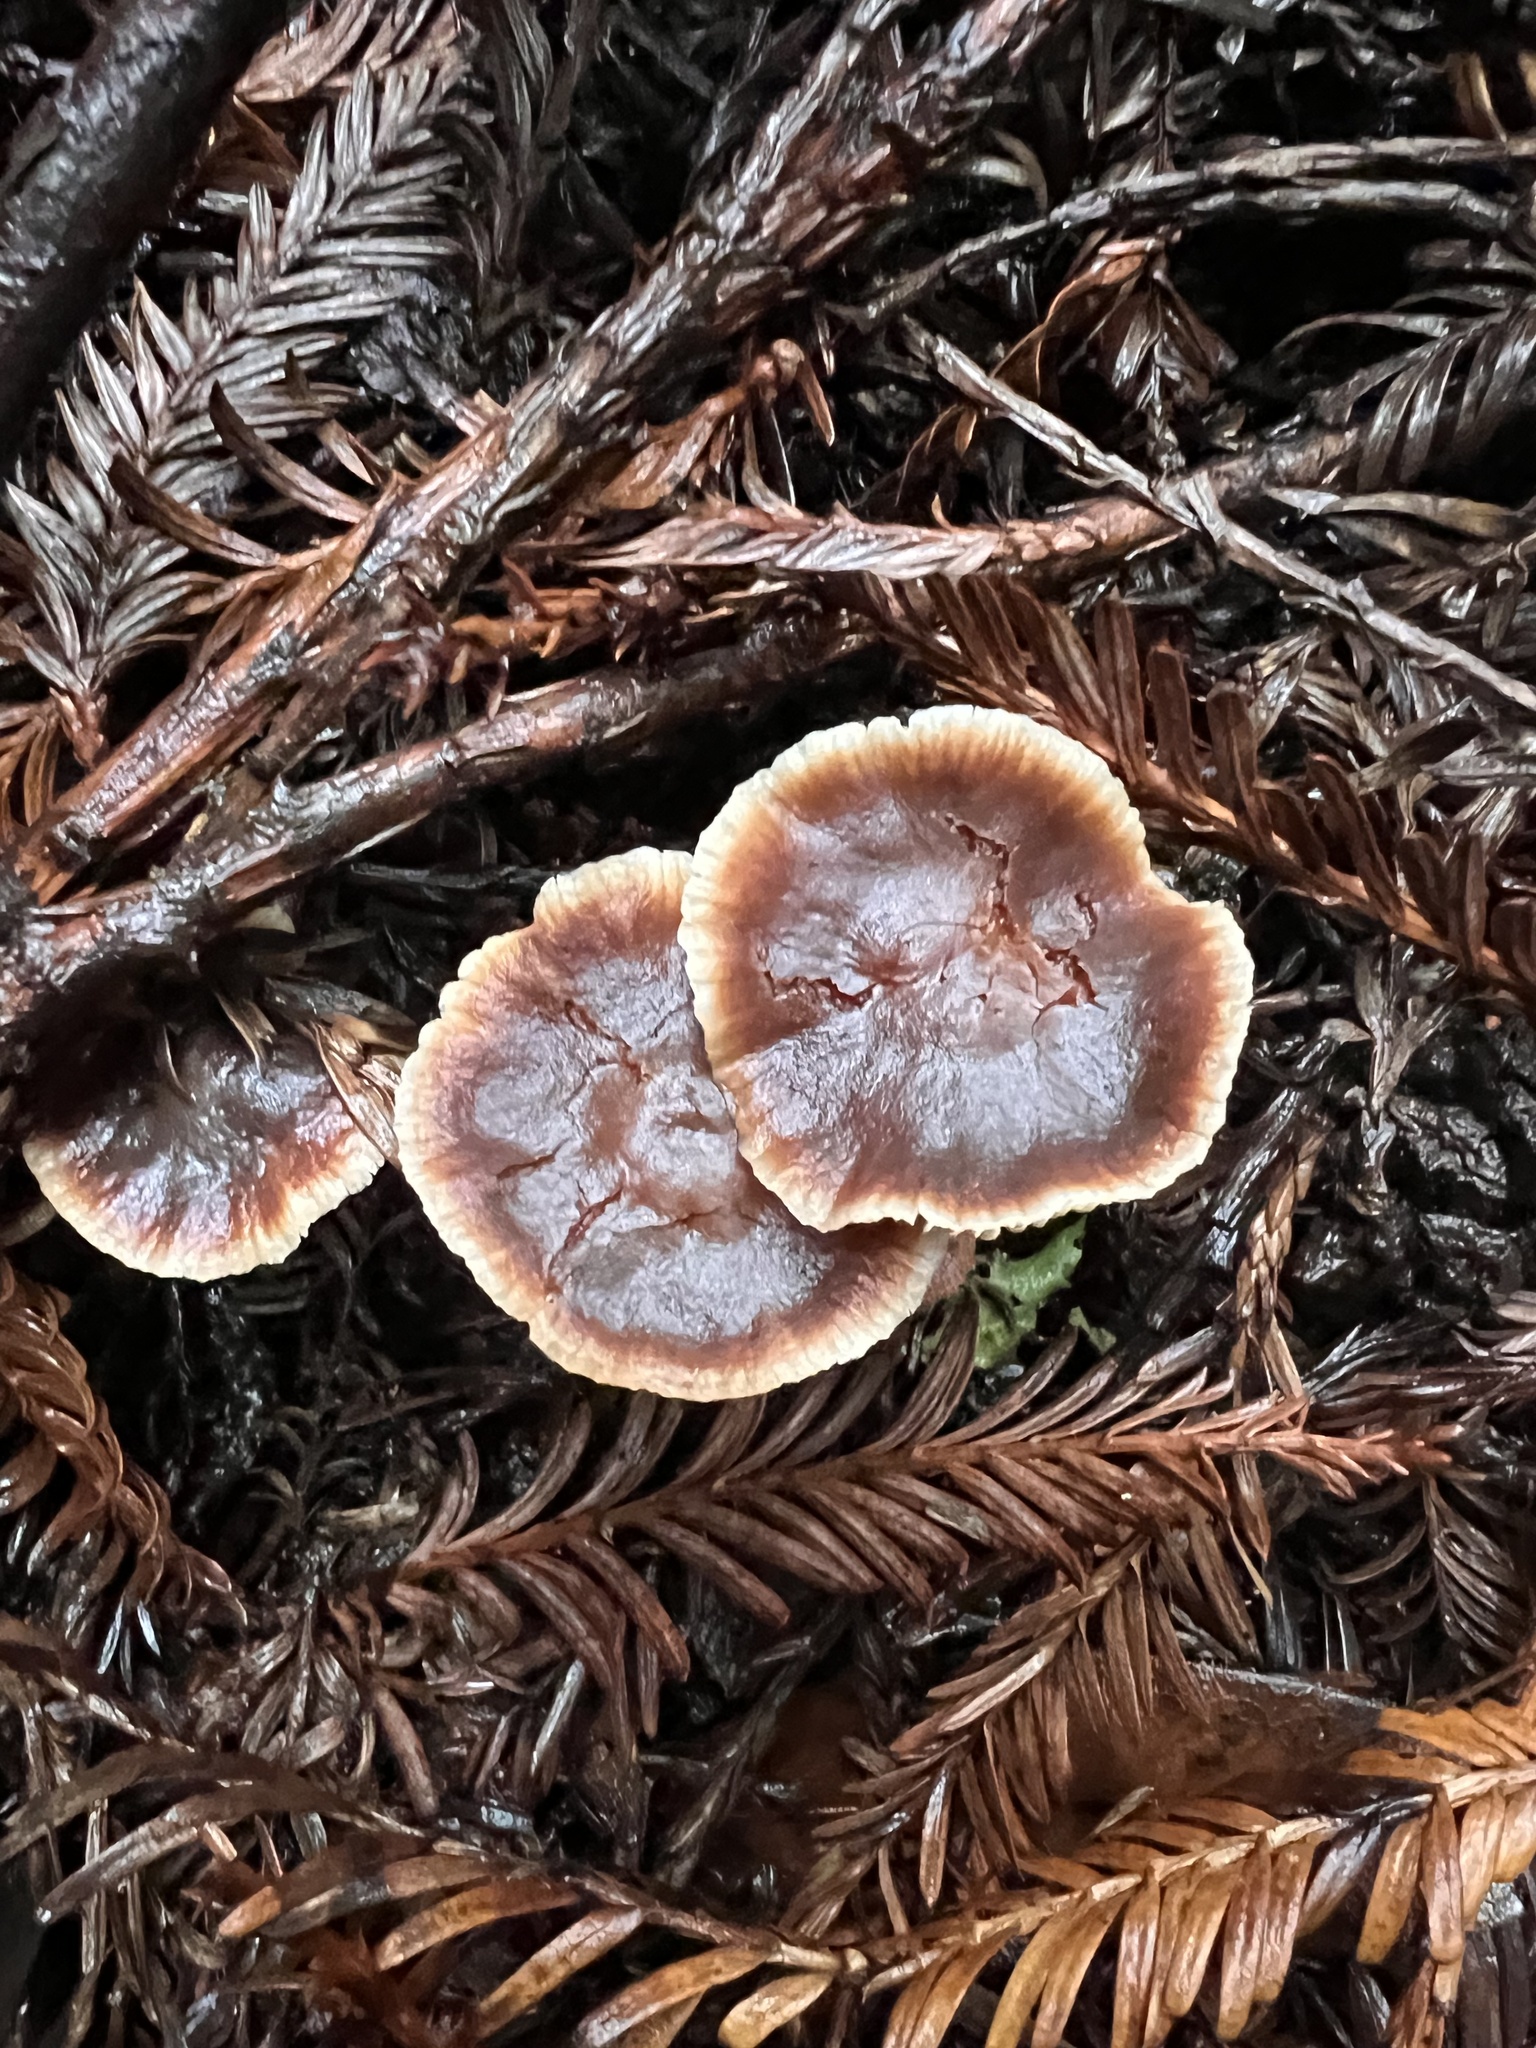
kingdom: Fungi
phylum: Basidiomycota
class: Agaricomycetes
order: Agaricales
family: Omphalotaceae
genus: Gymnopus
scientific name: Gymnopus brassicolens
